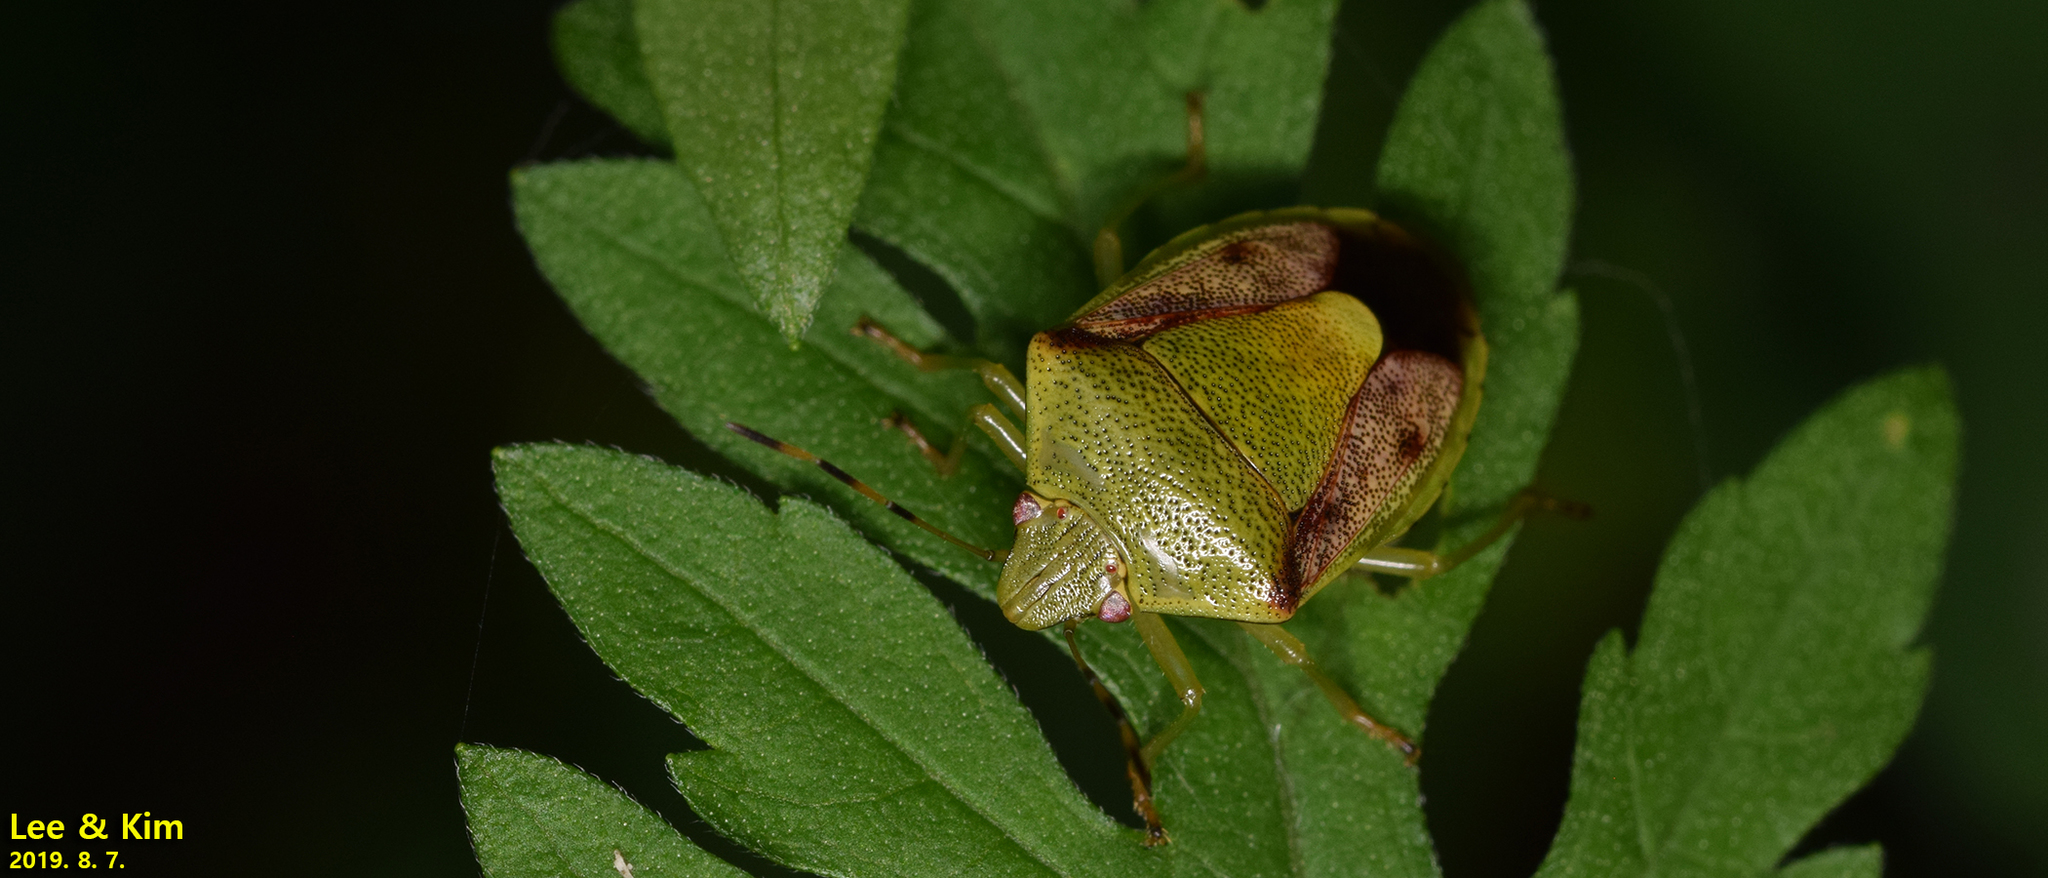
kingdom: Animalia
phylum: Arthropoda
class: Insecta
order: Hemiptera
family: Pentatomidae
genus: Plautia
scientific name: Plautia stali
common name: Stink bug
